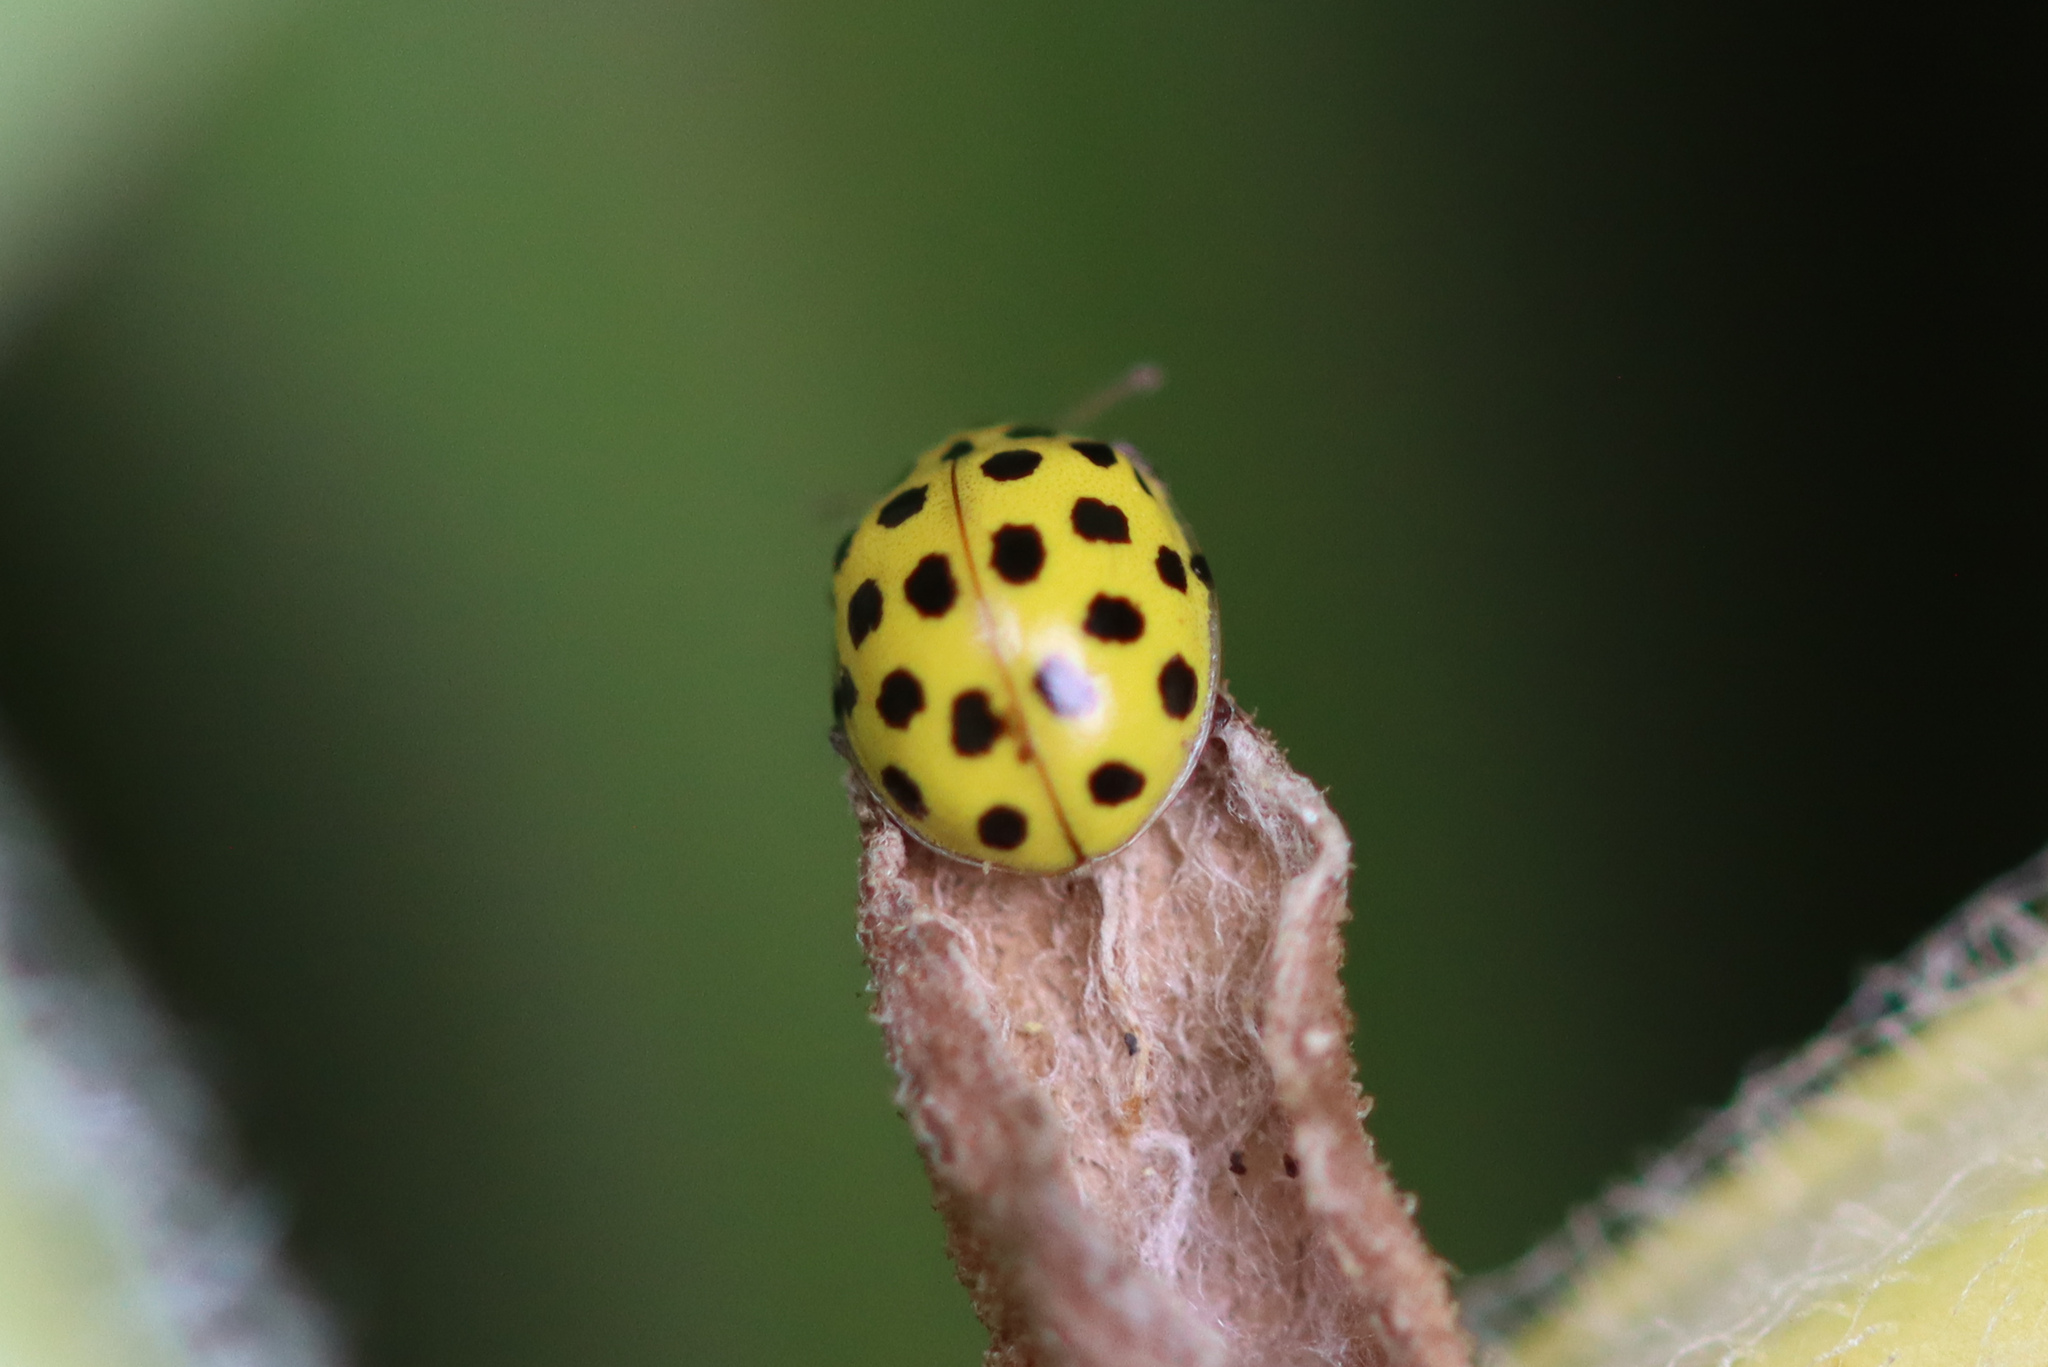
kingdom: Animalia
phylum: Arthropoda
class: Insecta
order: Coleoptera
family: Coccinellidae
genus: Psyllobora
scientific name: Psyllobora vigintiduopunctata
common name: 22-spot ladybird
